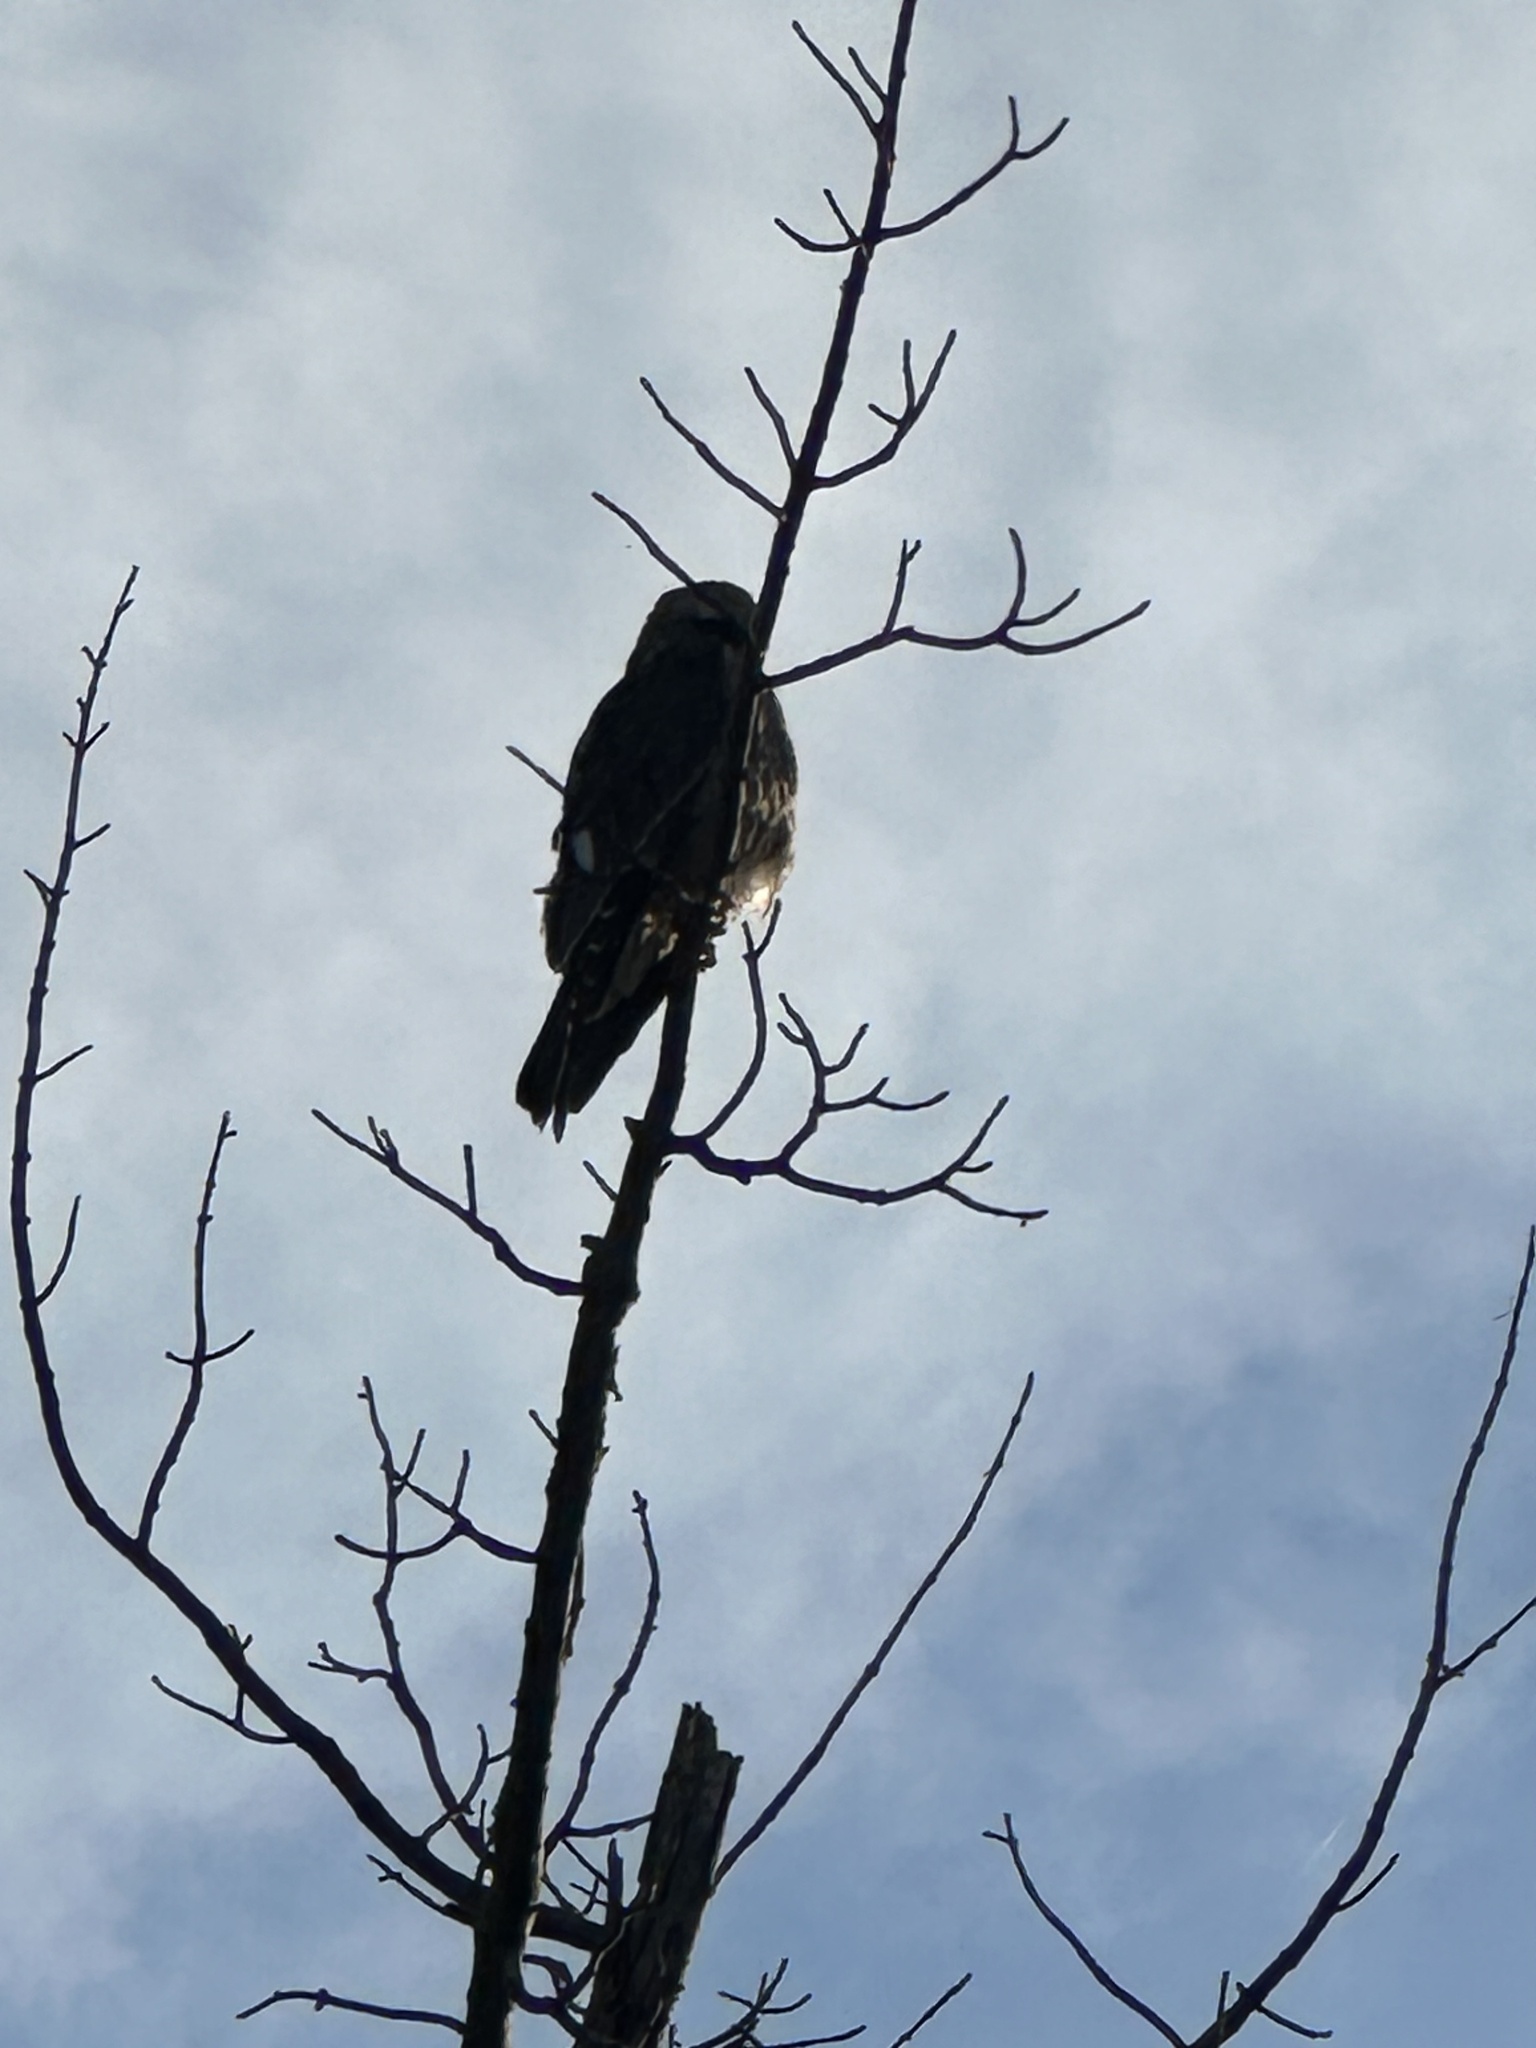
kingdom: Animalia
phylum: Chordata
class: Aves
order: Accipitriformes
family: Accipitridae
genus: Ictinia
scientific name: Ictinia mississippiensis
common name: Mississippi kite
